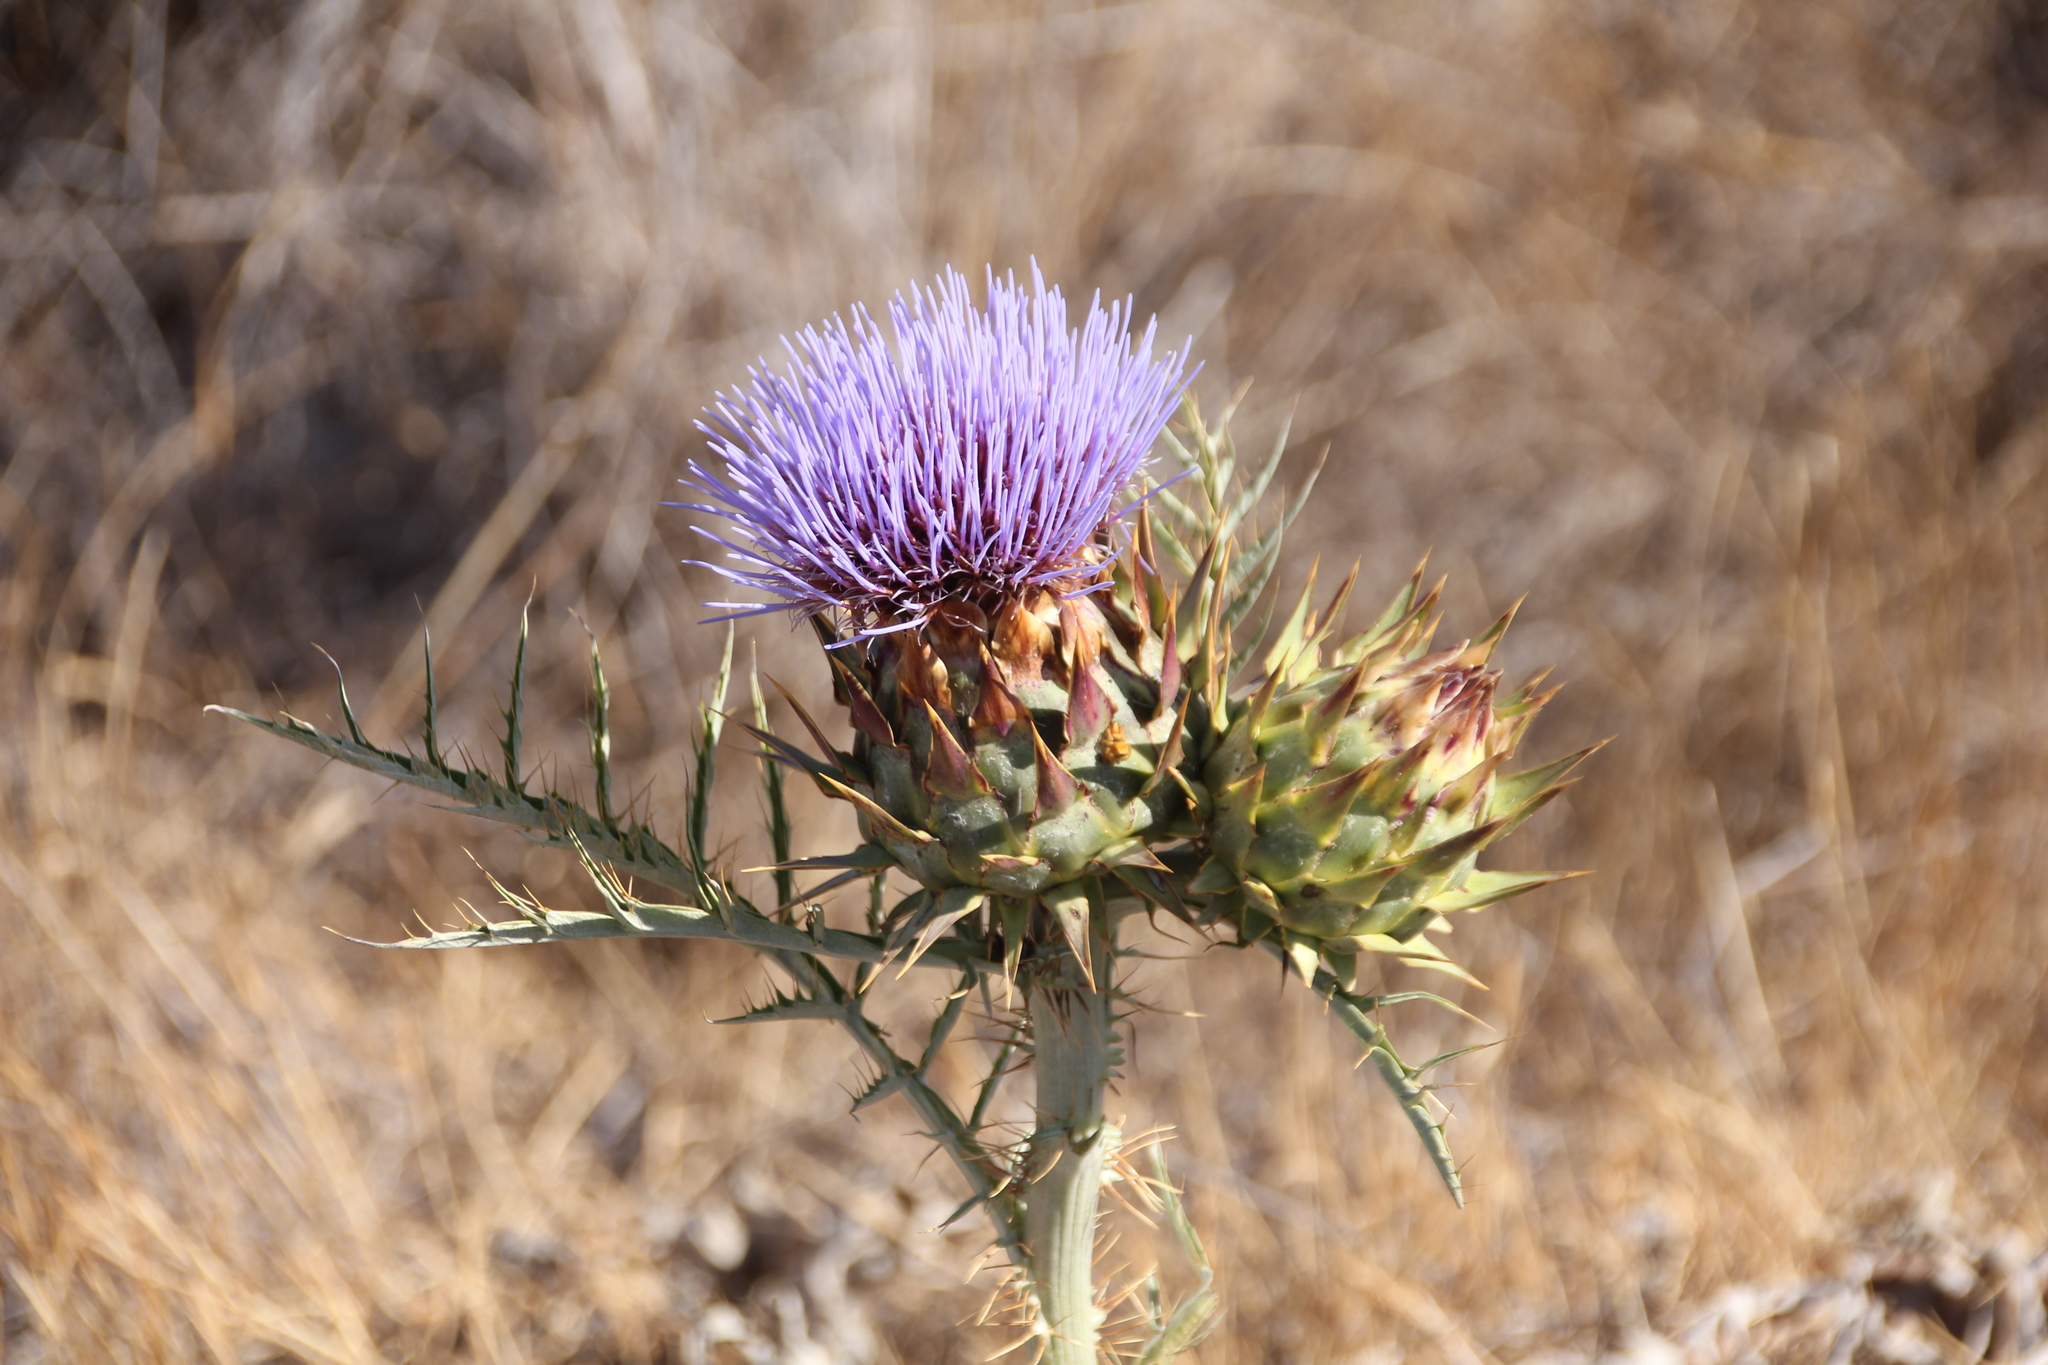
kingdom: Plantae
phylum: Tracheophyta
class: Magnoliopsida
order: Asterales
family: Asteraceae
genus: Cynara
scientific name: Cynara cardunculus
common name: Globe artichoke
